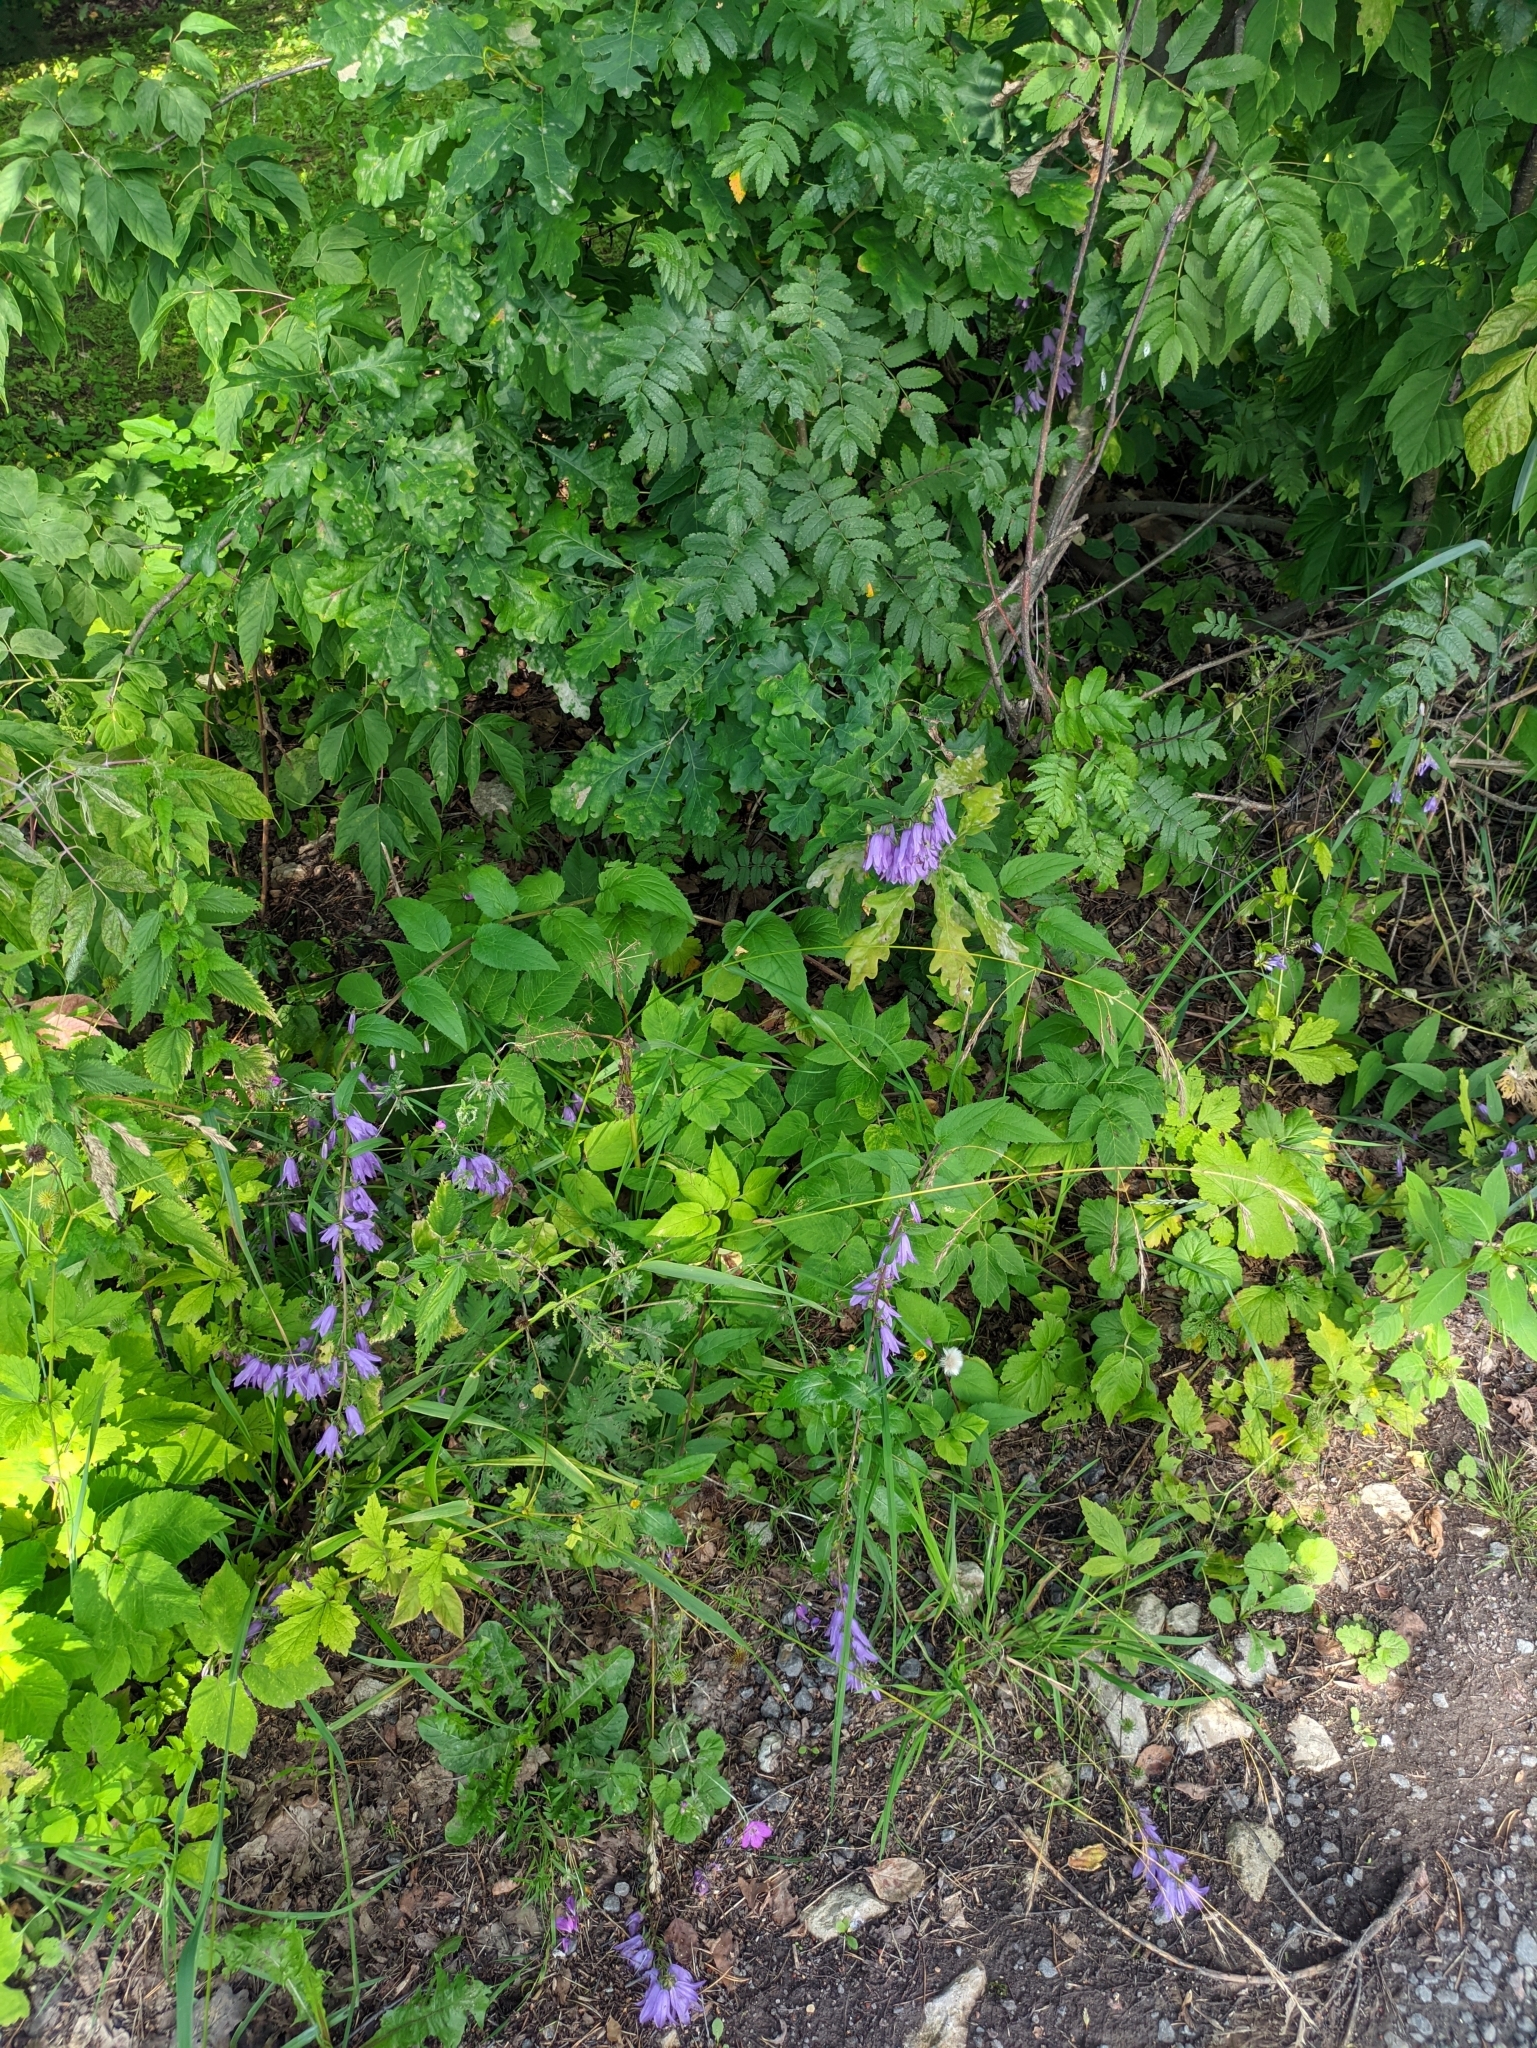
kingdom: Plantae
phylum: Tracheophyta
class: Magnoliopsida
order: Asterales
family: Campanulaceae
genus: Campanula
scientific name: Campanula rapunculoides
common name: Creeping bellflower
